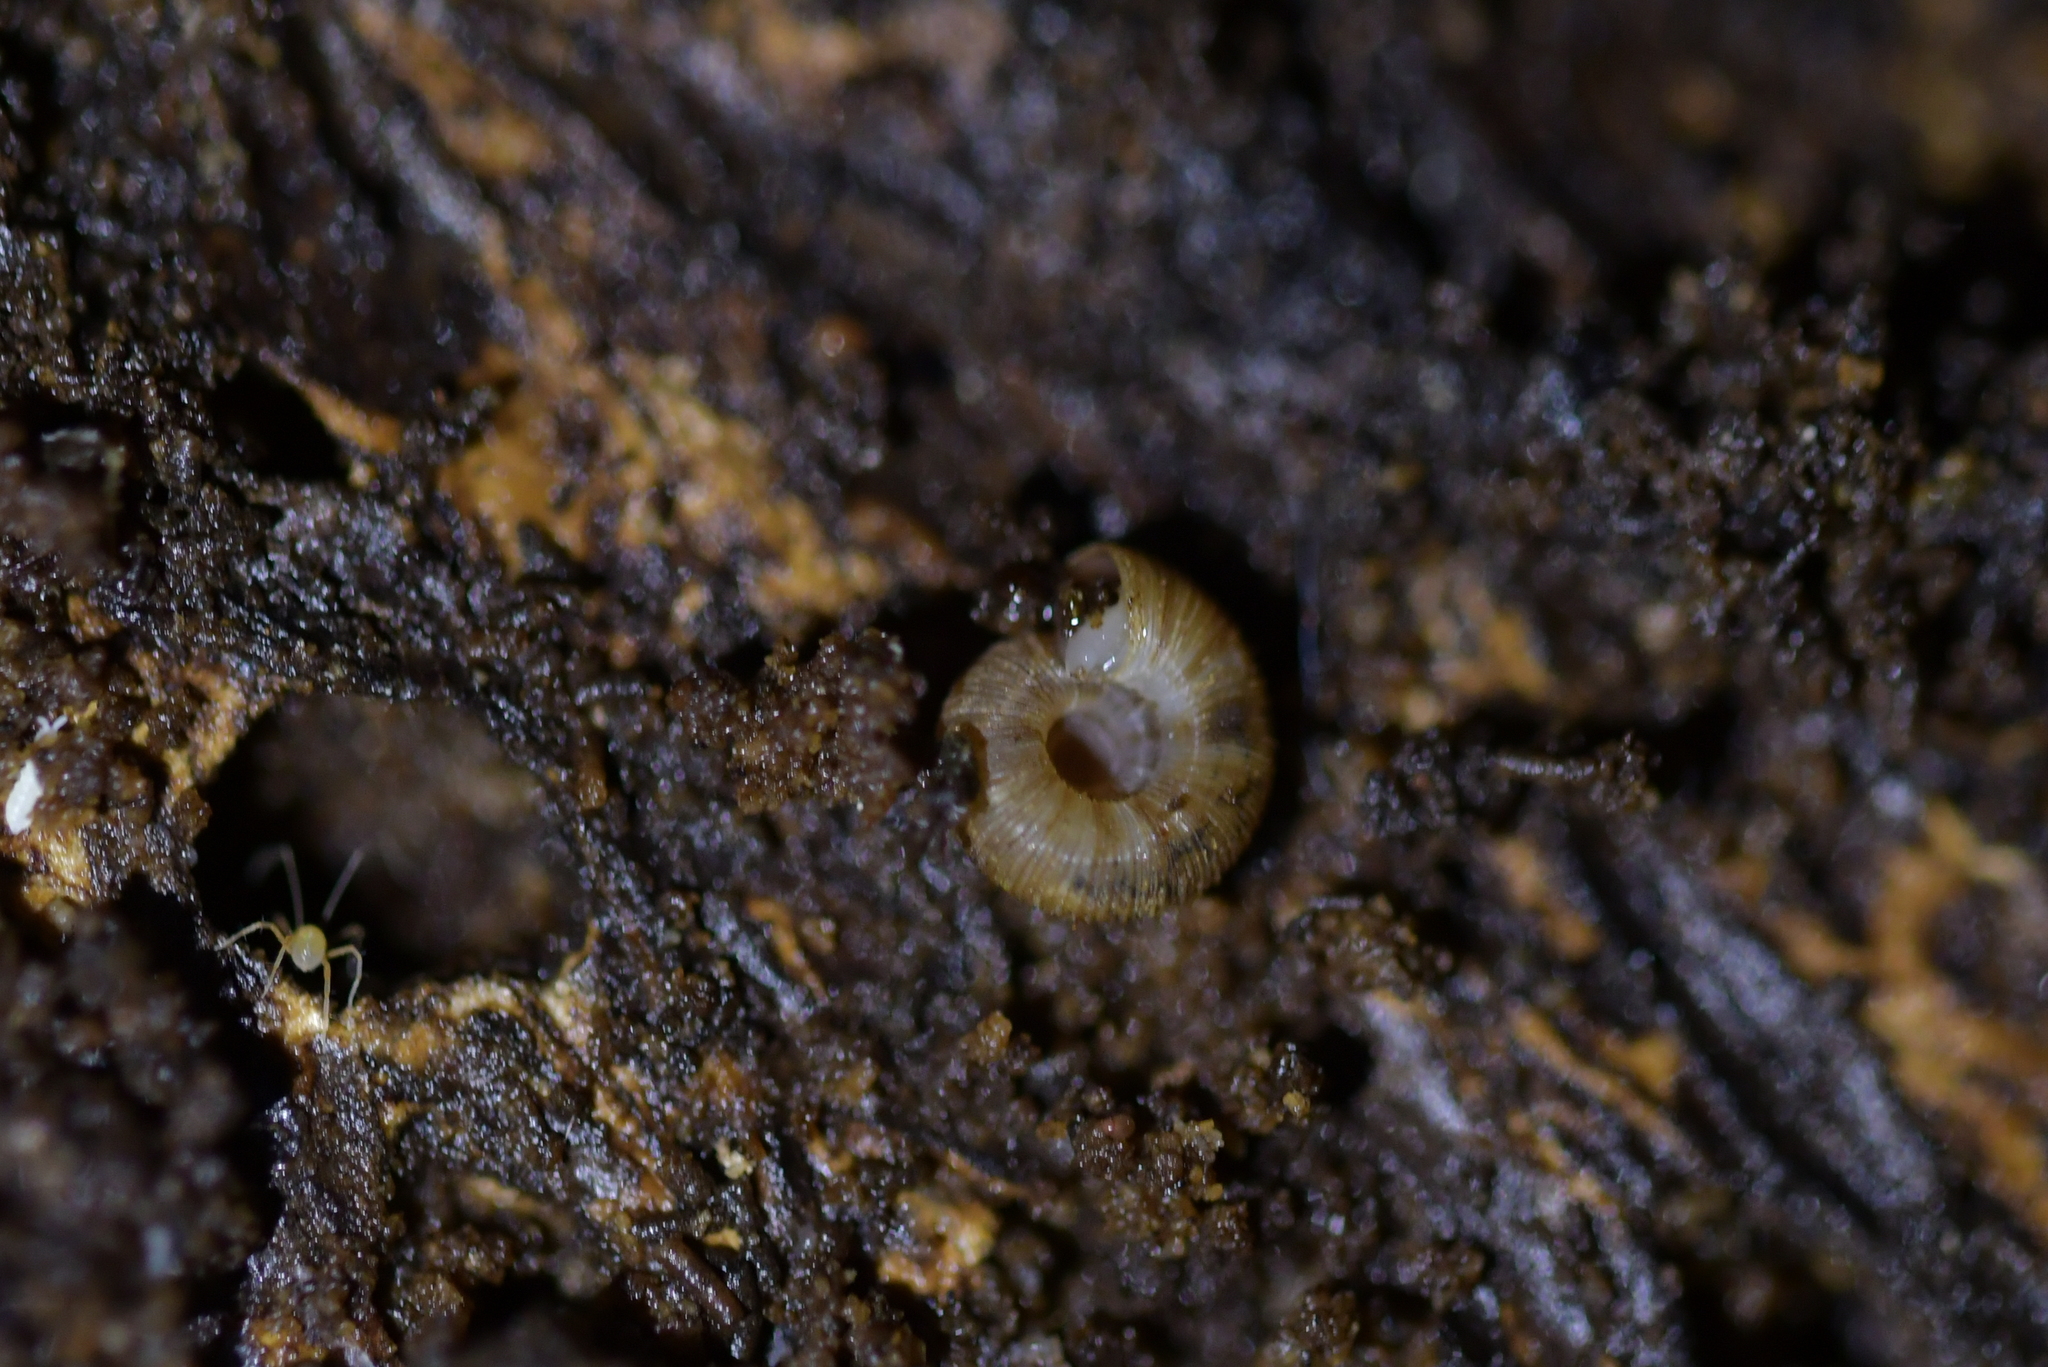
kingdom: Animalia
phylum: Mollusca
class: Gastropoda
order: Stylommatophora
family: Charopidae
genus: Cavellia
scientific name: Cavellia anguicula
